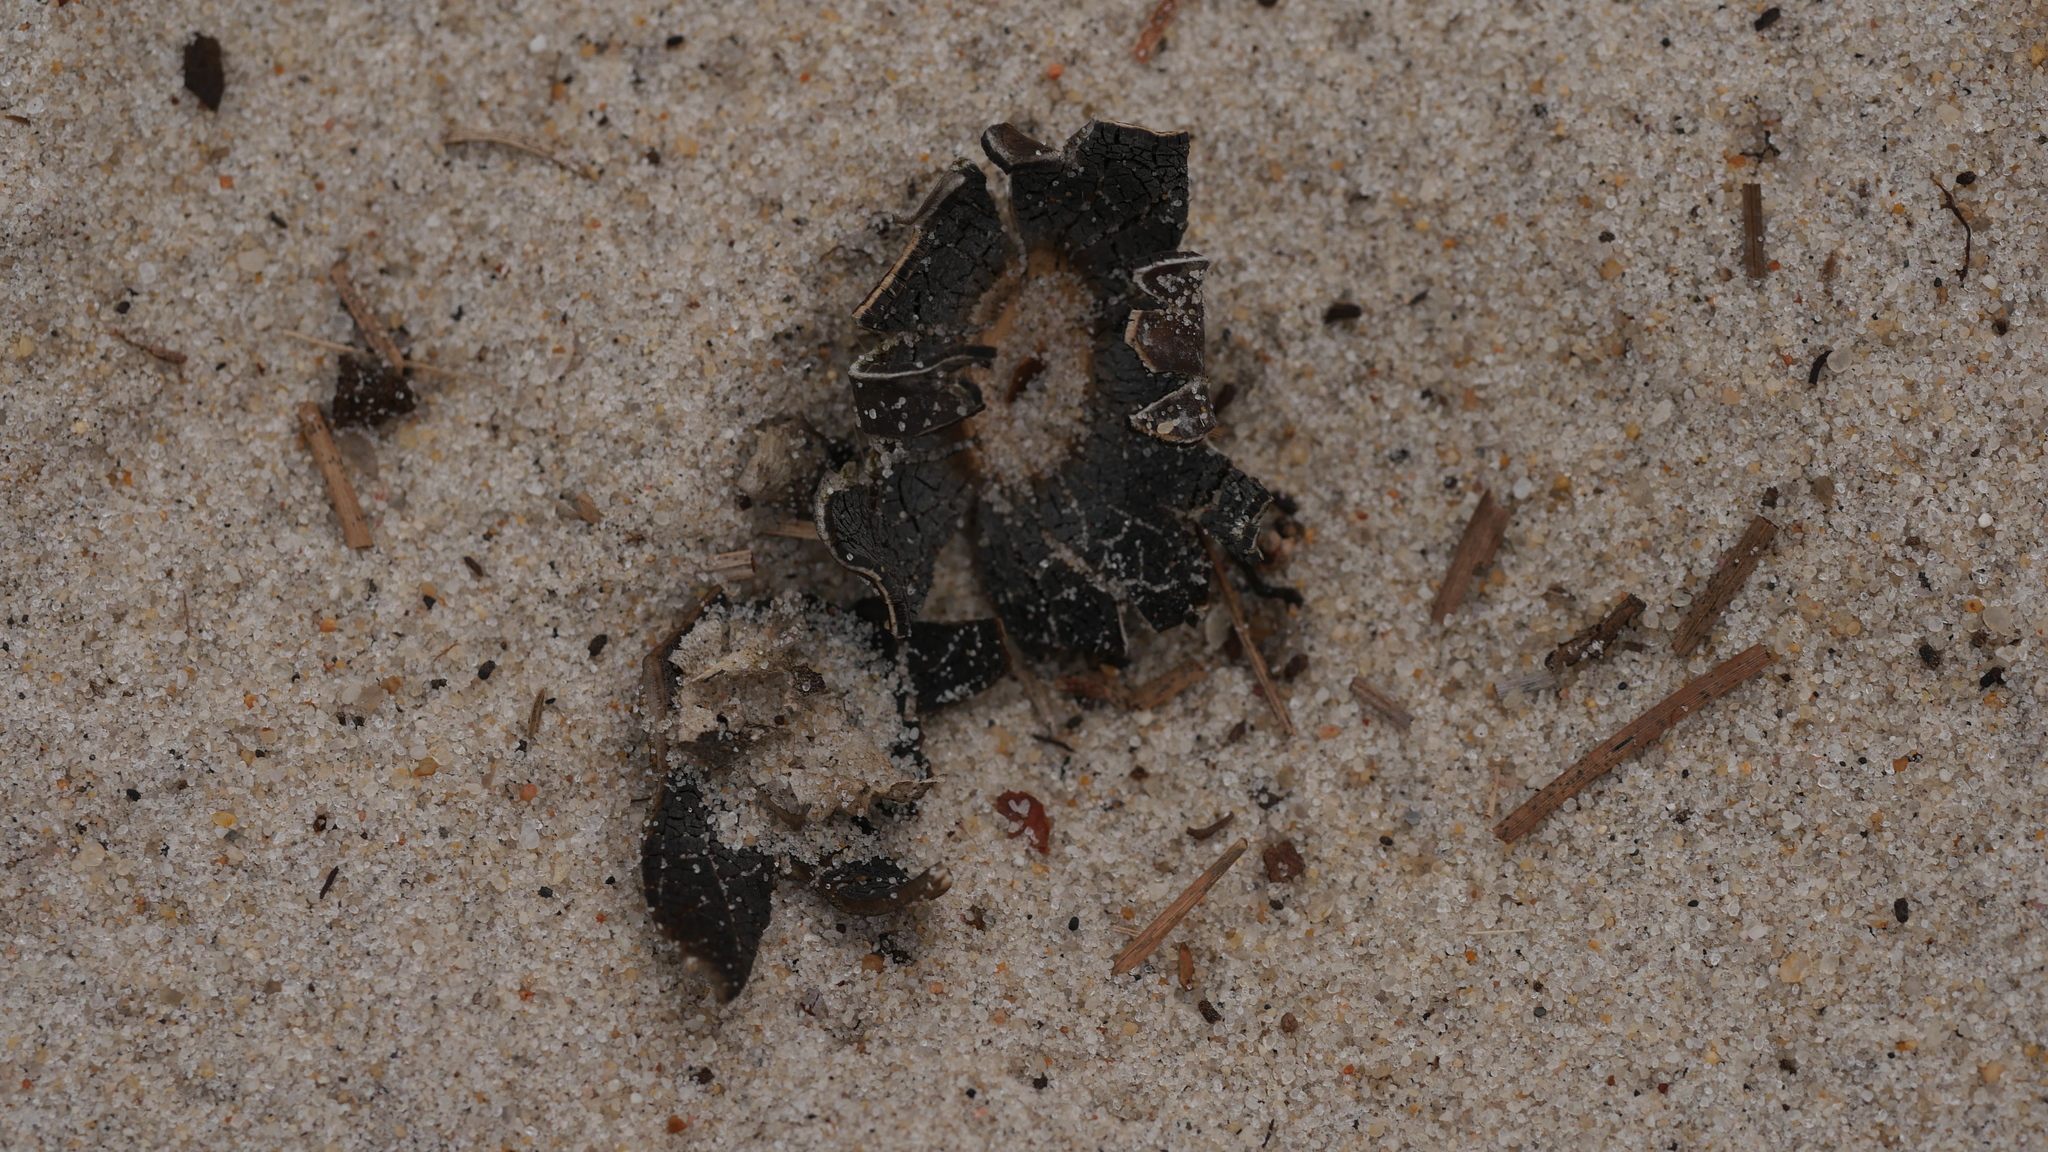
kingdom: Fungi
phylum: Basidiomycota
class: Agaricomycetes
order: Boletales
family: Diplocystidiaceae
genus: Astraeus
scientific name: Astraeus smithii
